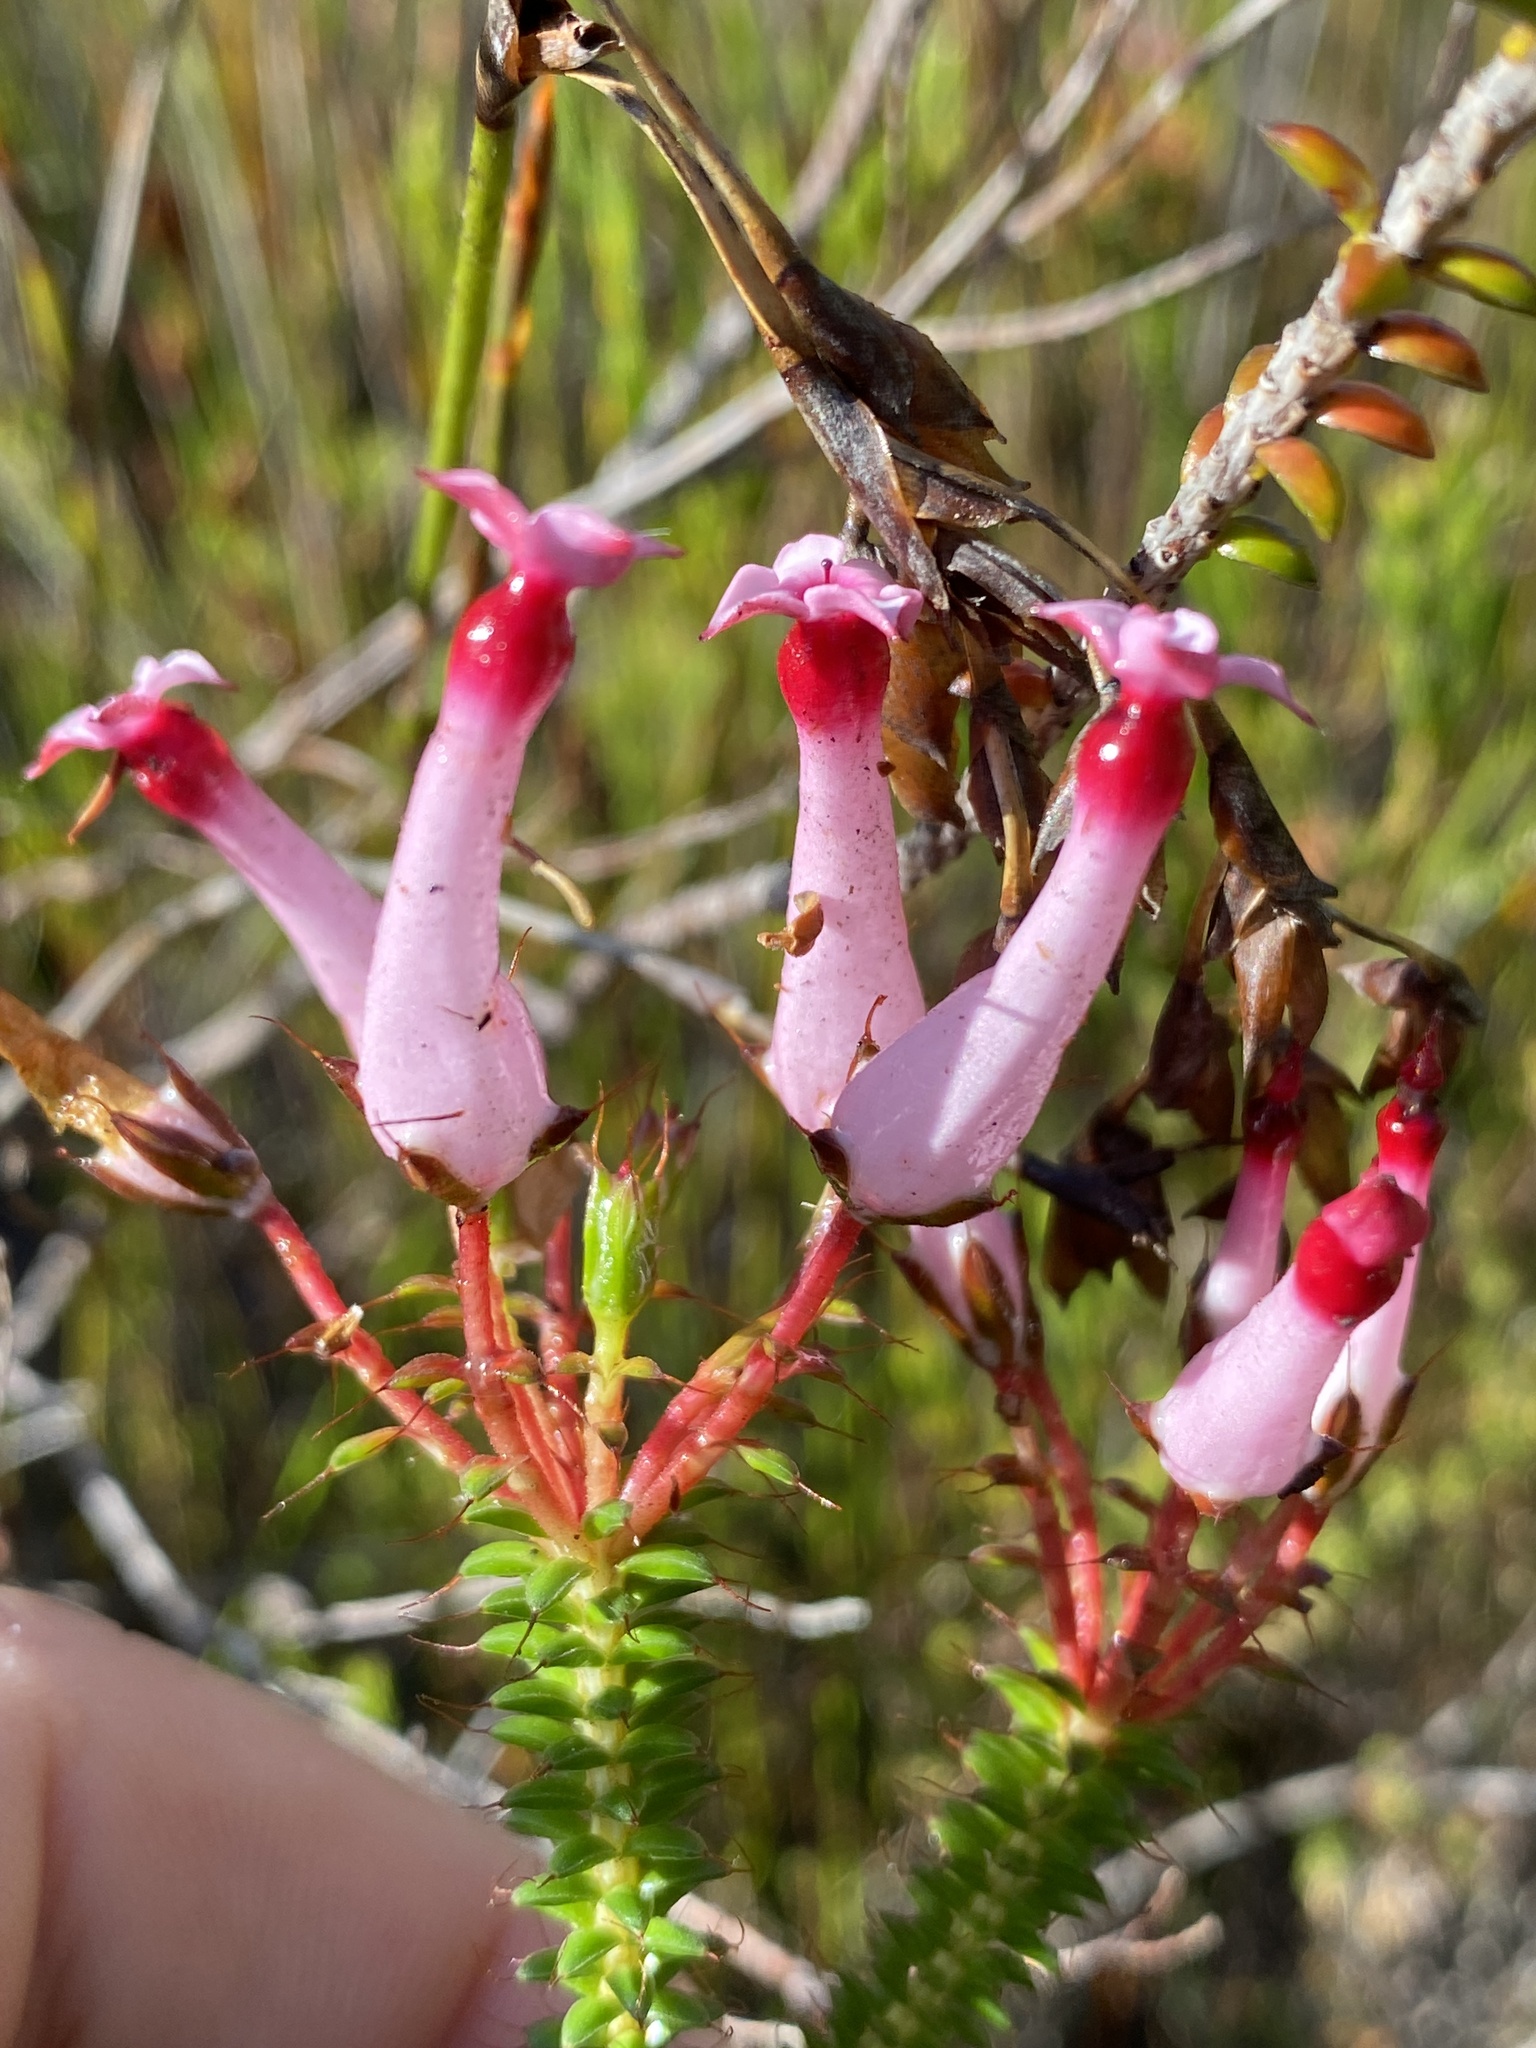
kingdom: Plantae
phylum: Tracheophyta
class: Magnoliopsida
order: Ericales
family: Ericaceae
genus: Erica
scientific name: Erica retorta
